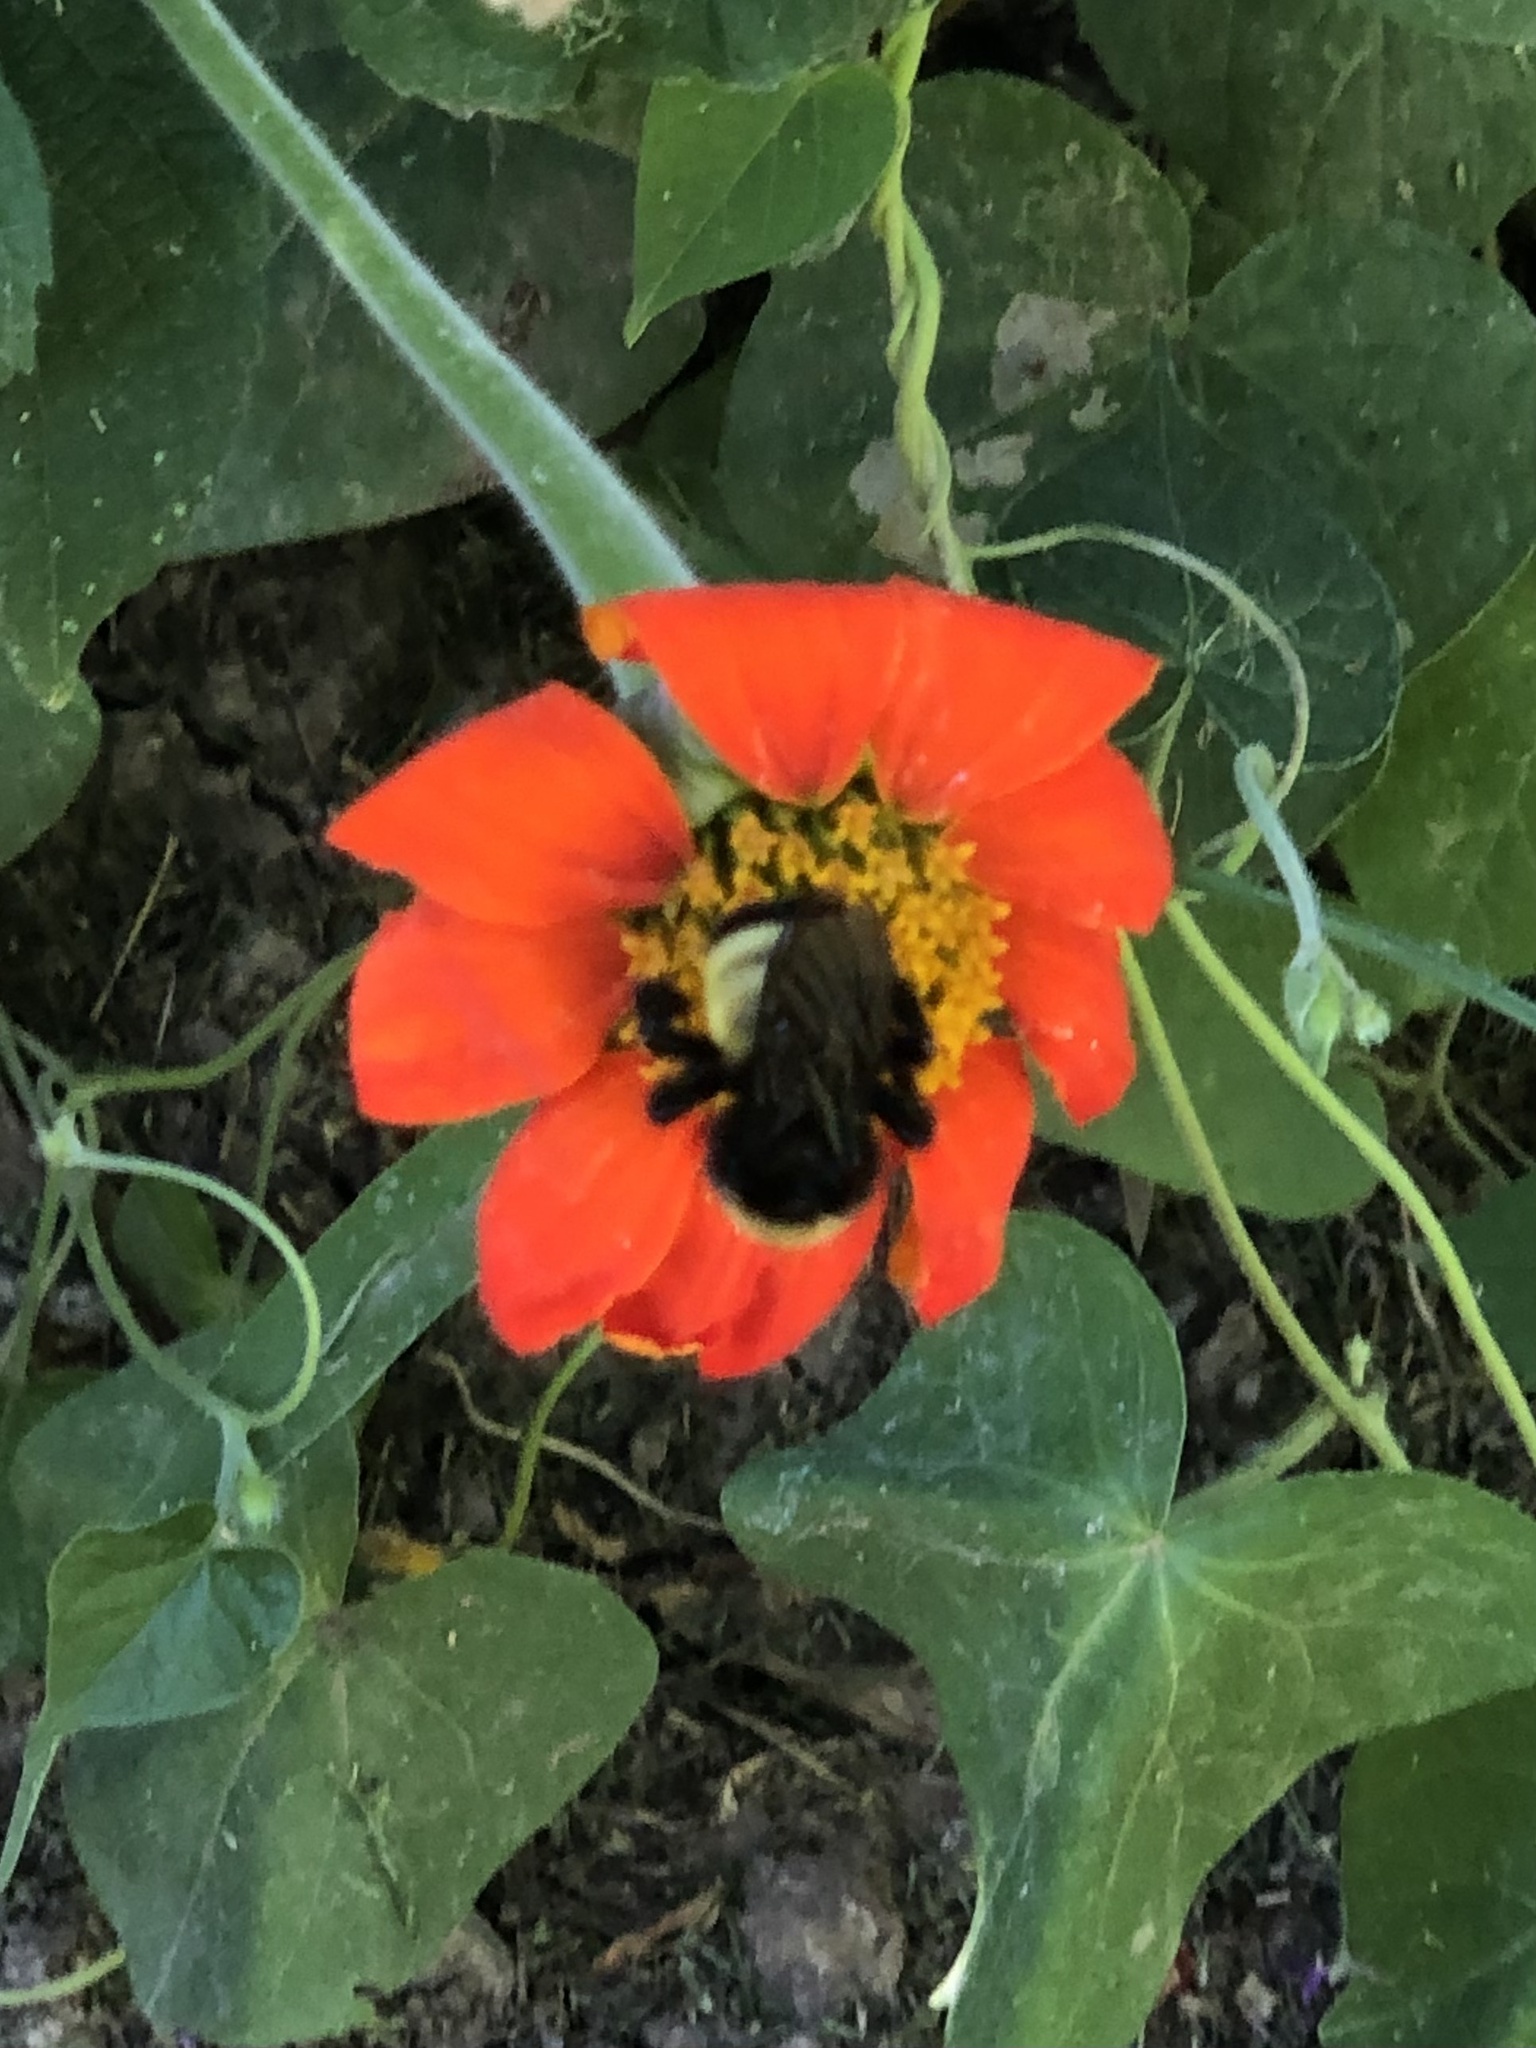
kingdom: Animalia
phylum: Arthropoda
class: Insecta
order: Hymenoptera
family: Apidae
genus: Bombus
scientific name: Bombus pensylvanicus
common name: Bumble bee
